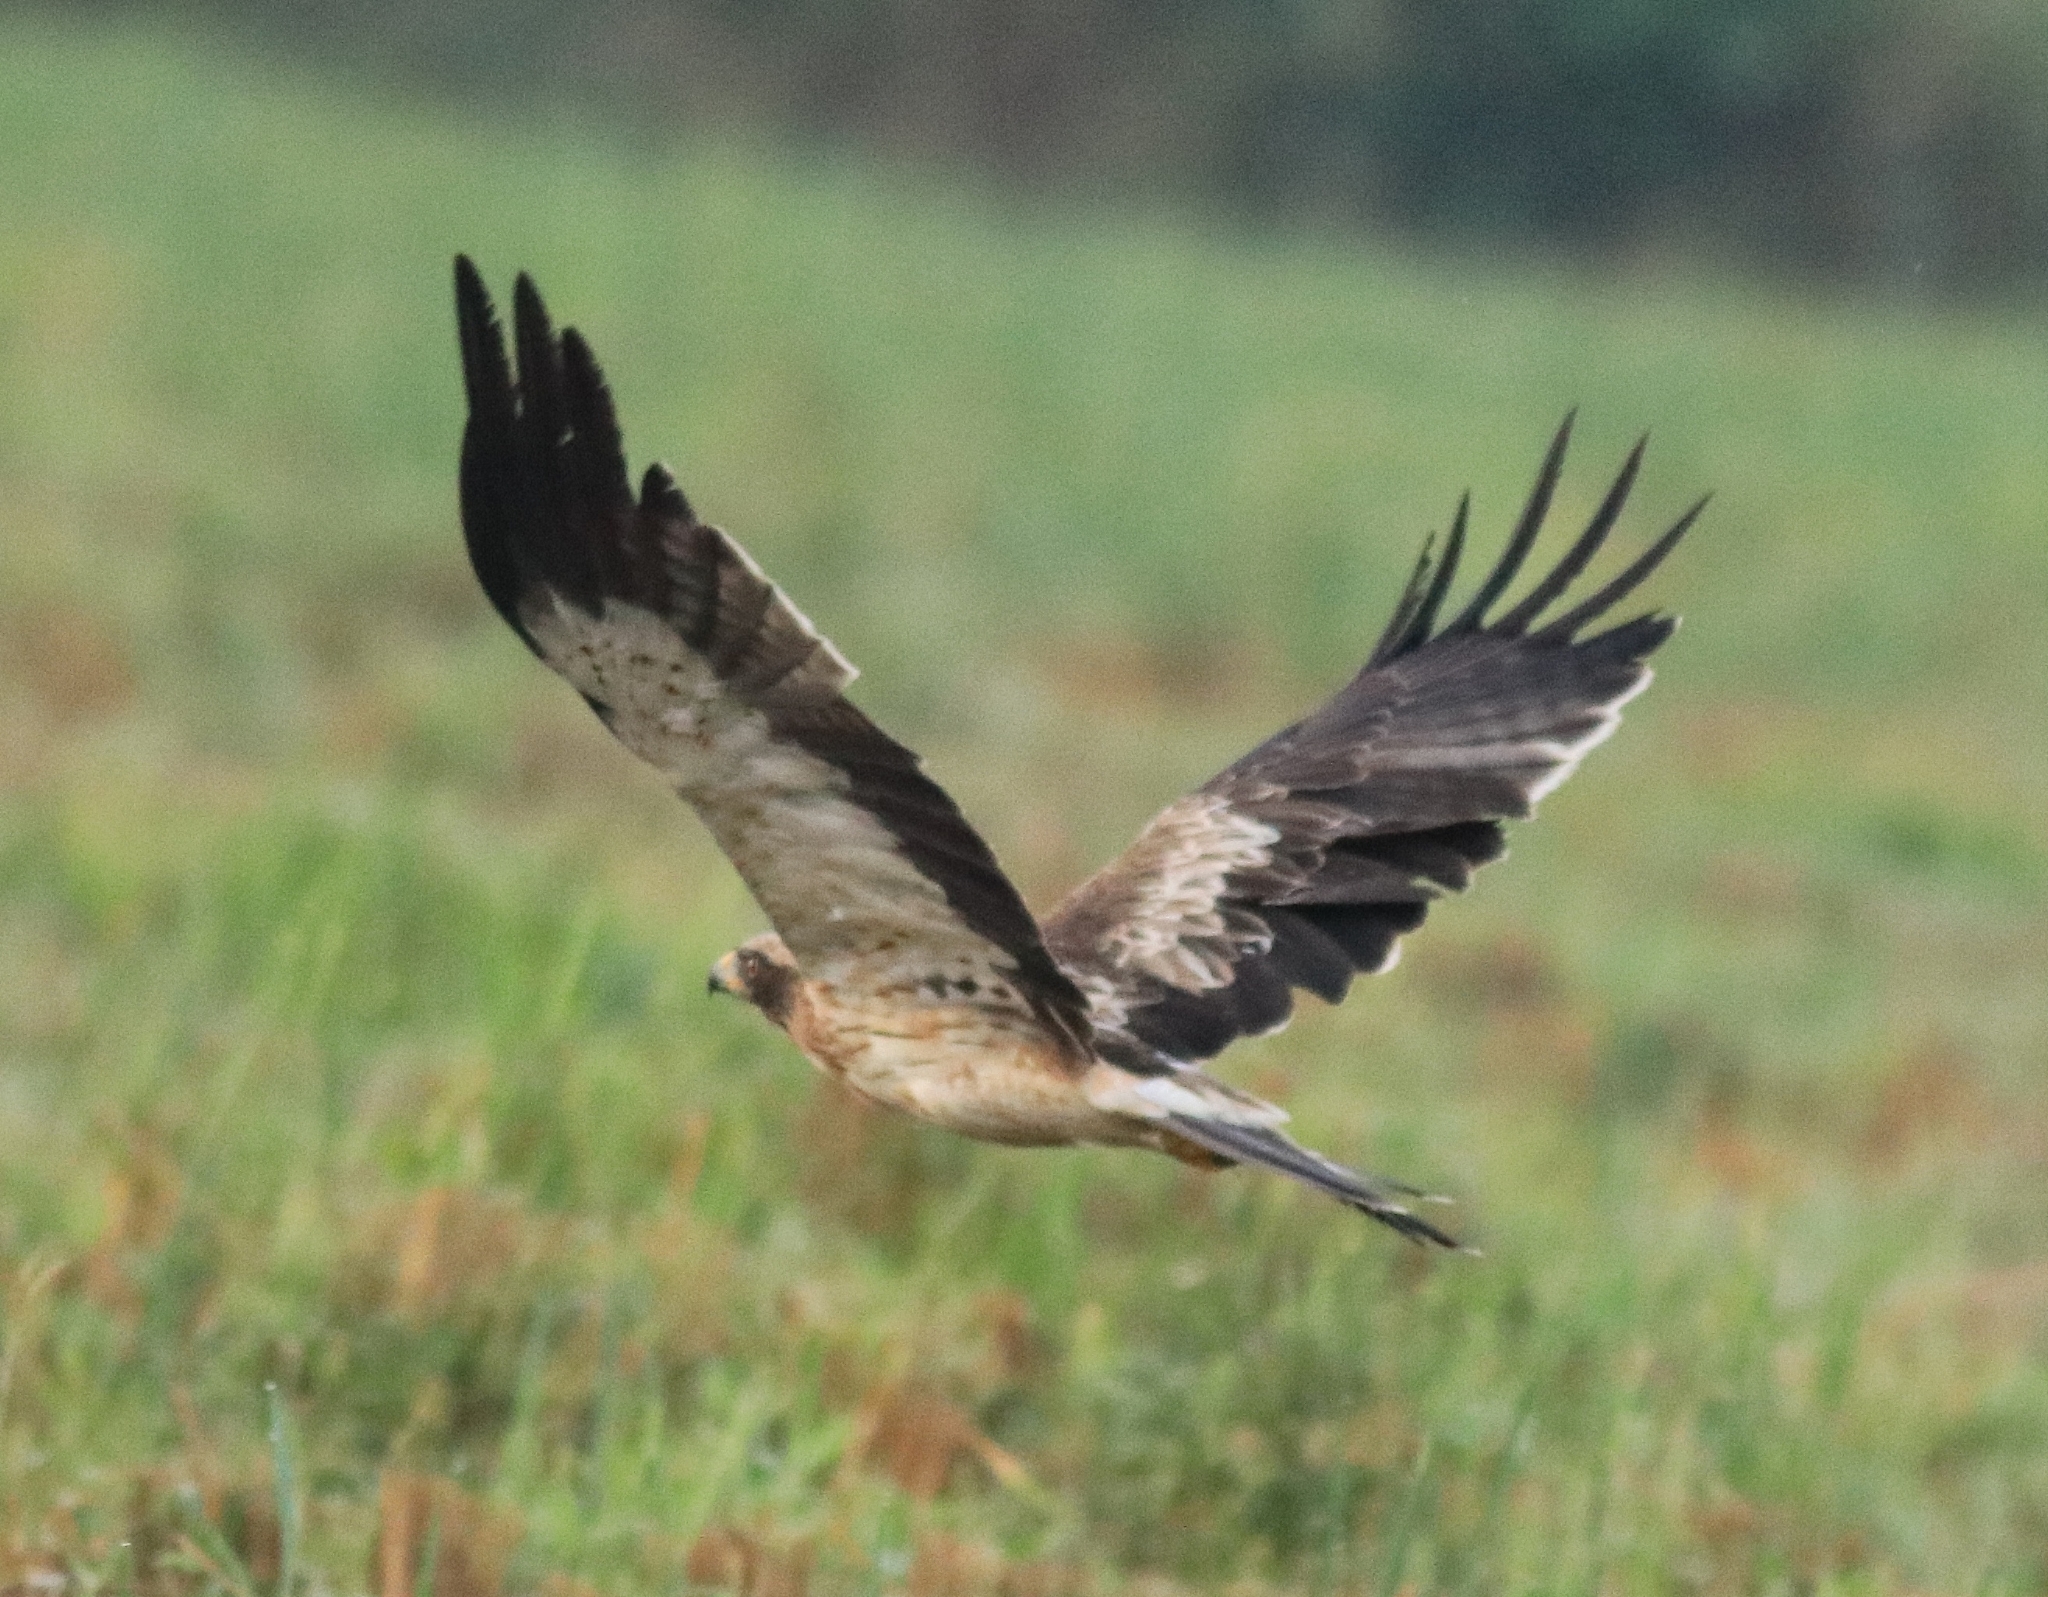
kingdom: Animalia
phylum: Chordata
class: Aves
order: Accipitriformes
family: Accipitridae
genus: Hieraaetus
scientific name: Hieraaetus pennatus
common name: Booted eagle
